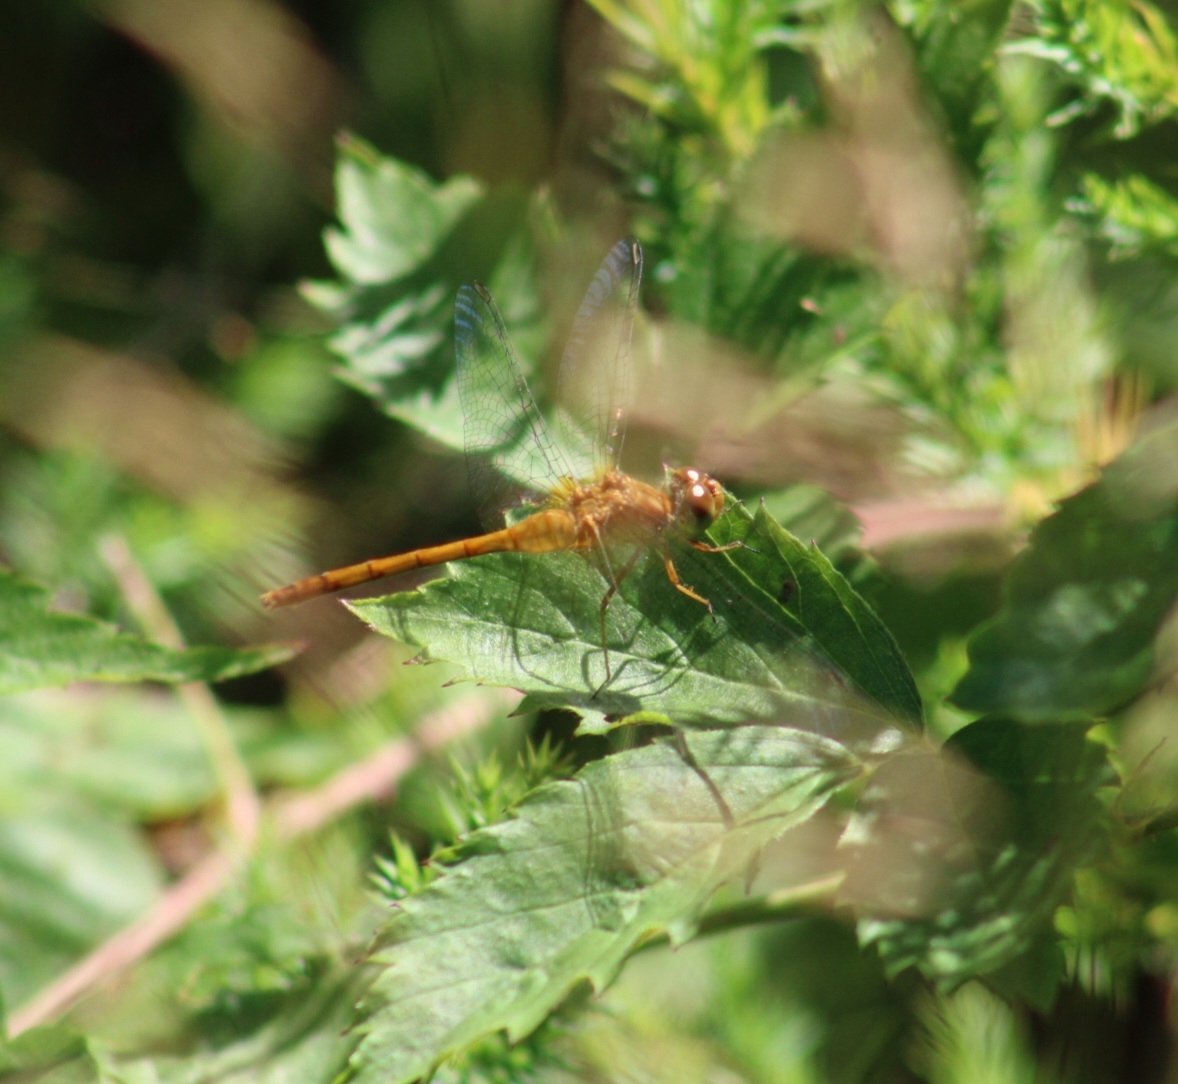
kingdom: Animalia
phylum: Arthropoda
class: Insecta
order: Odonata
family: Libellulidae
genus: Sympetrum
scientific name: Sympetrum vicinum
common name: Autumn meadowhawk
